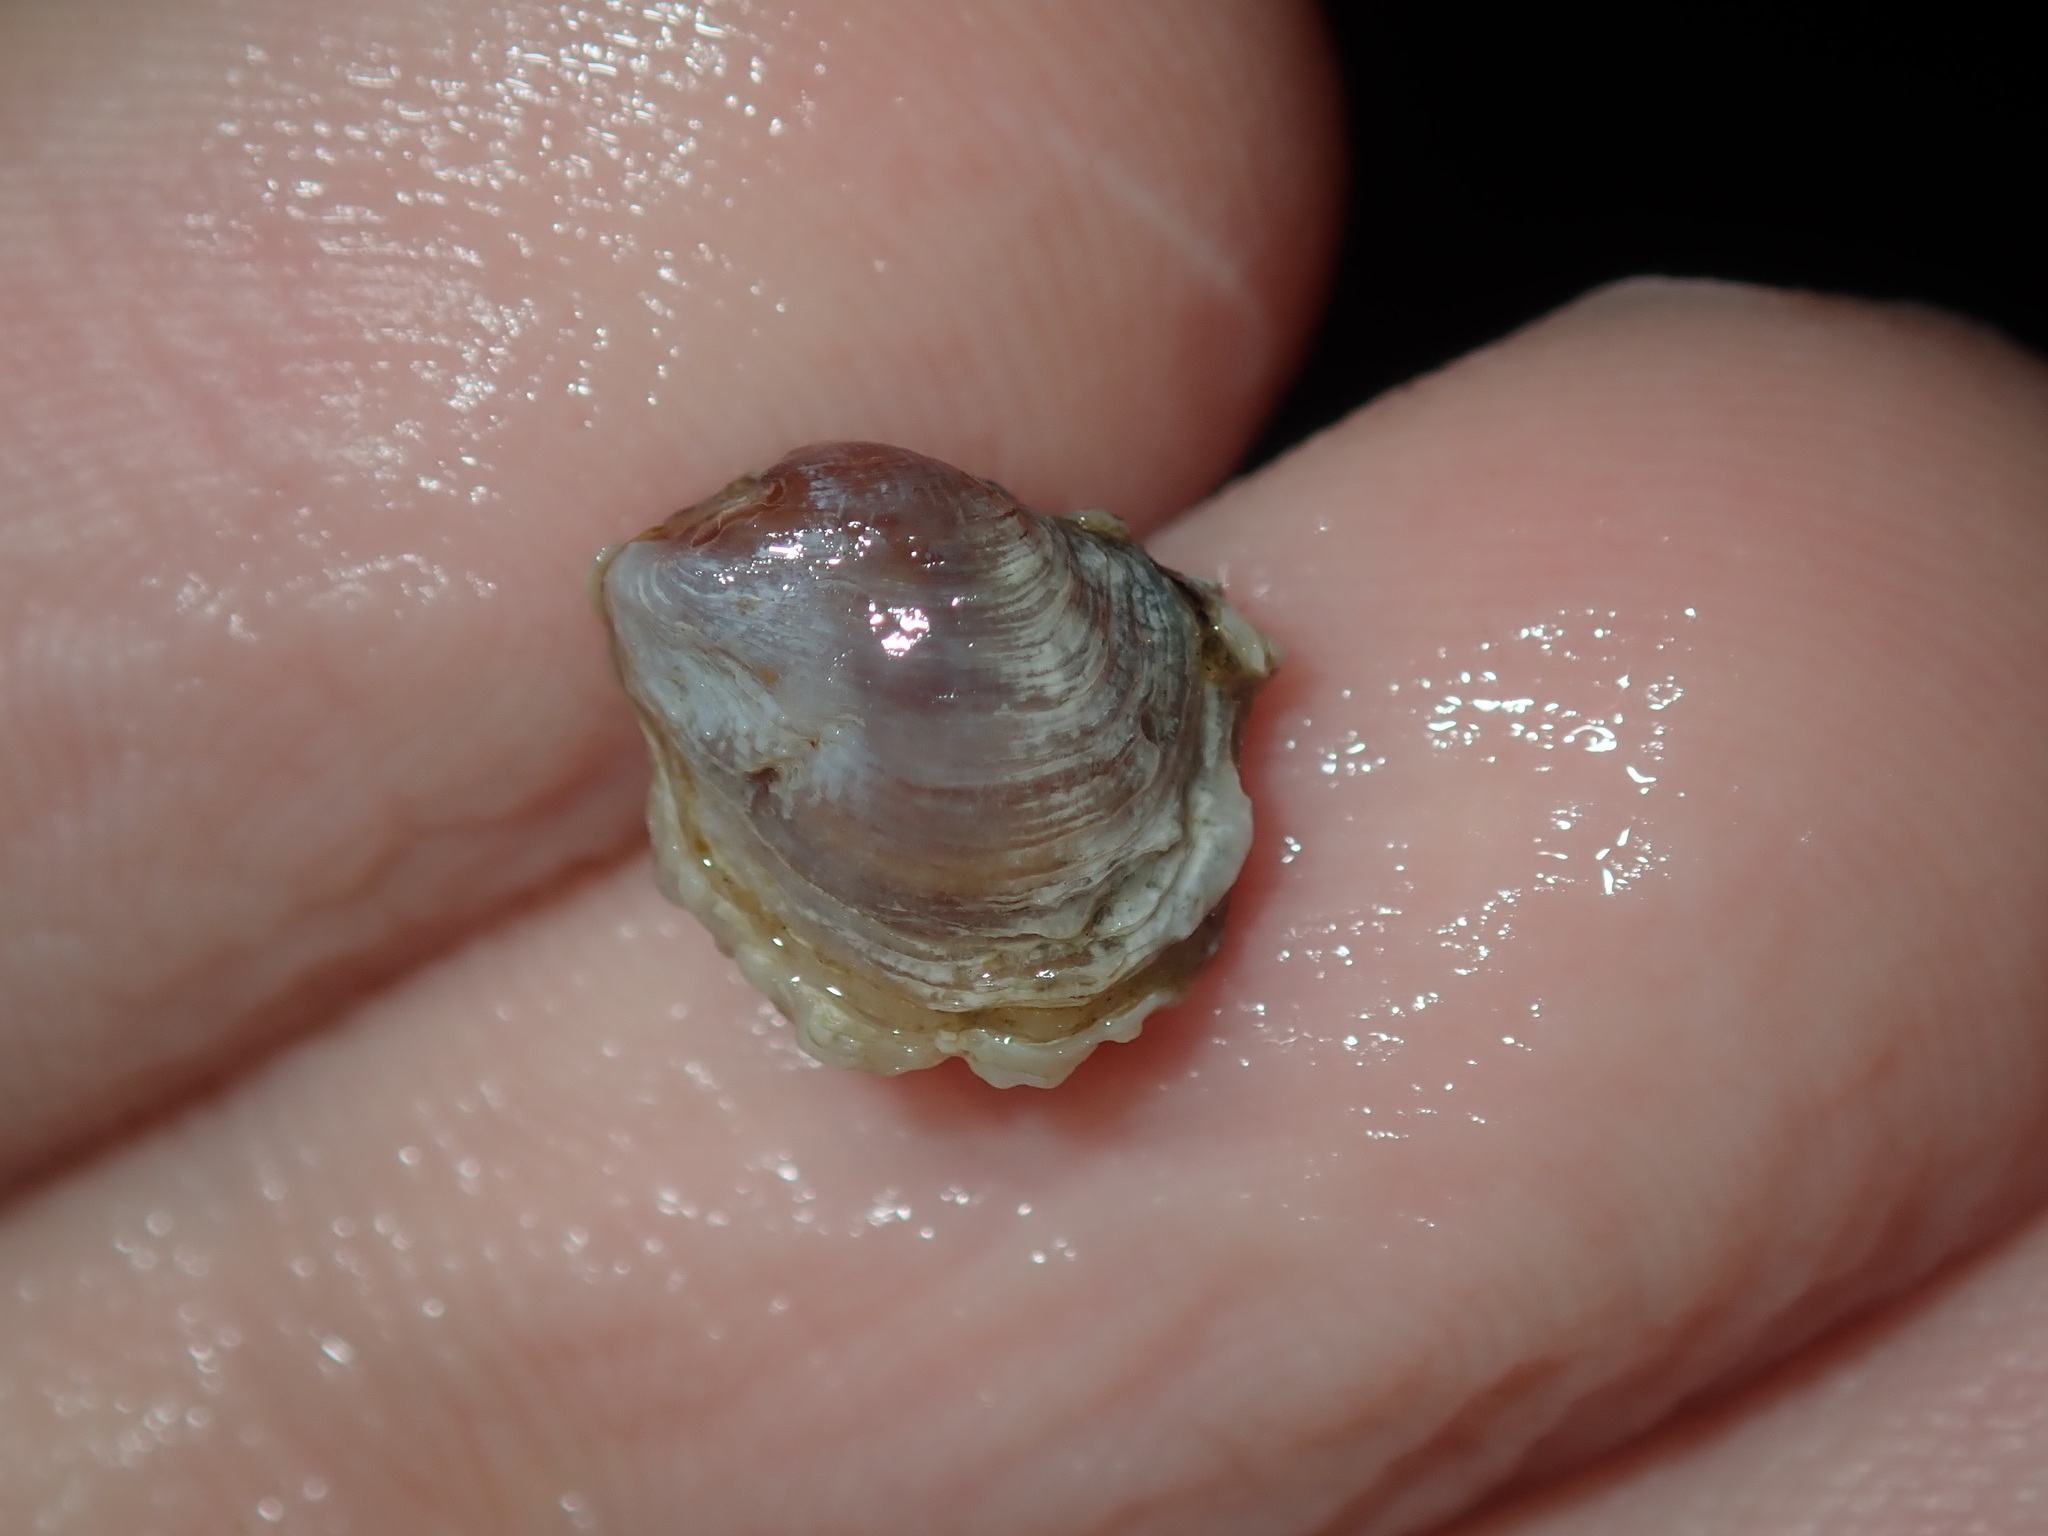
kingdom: Animalia
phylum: Mollusca
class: Bivalvia
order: Venerida
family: Veneridae
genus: Irus
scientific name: Irus cumingii
